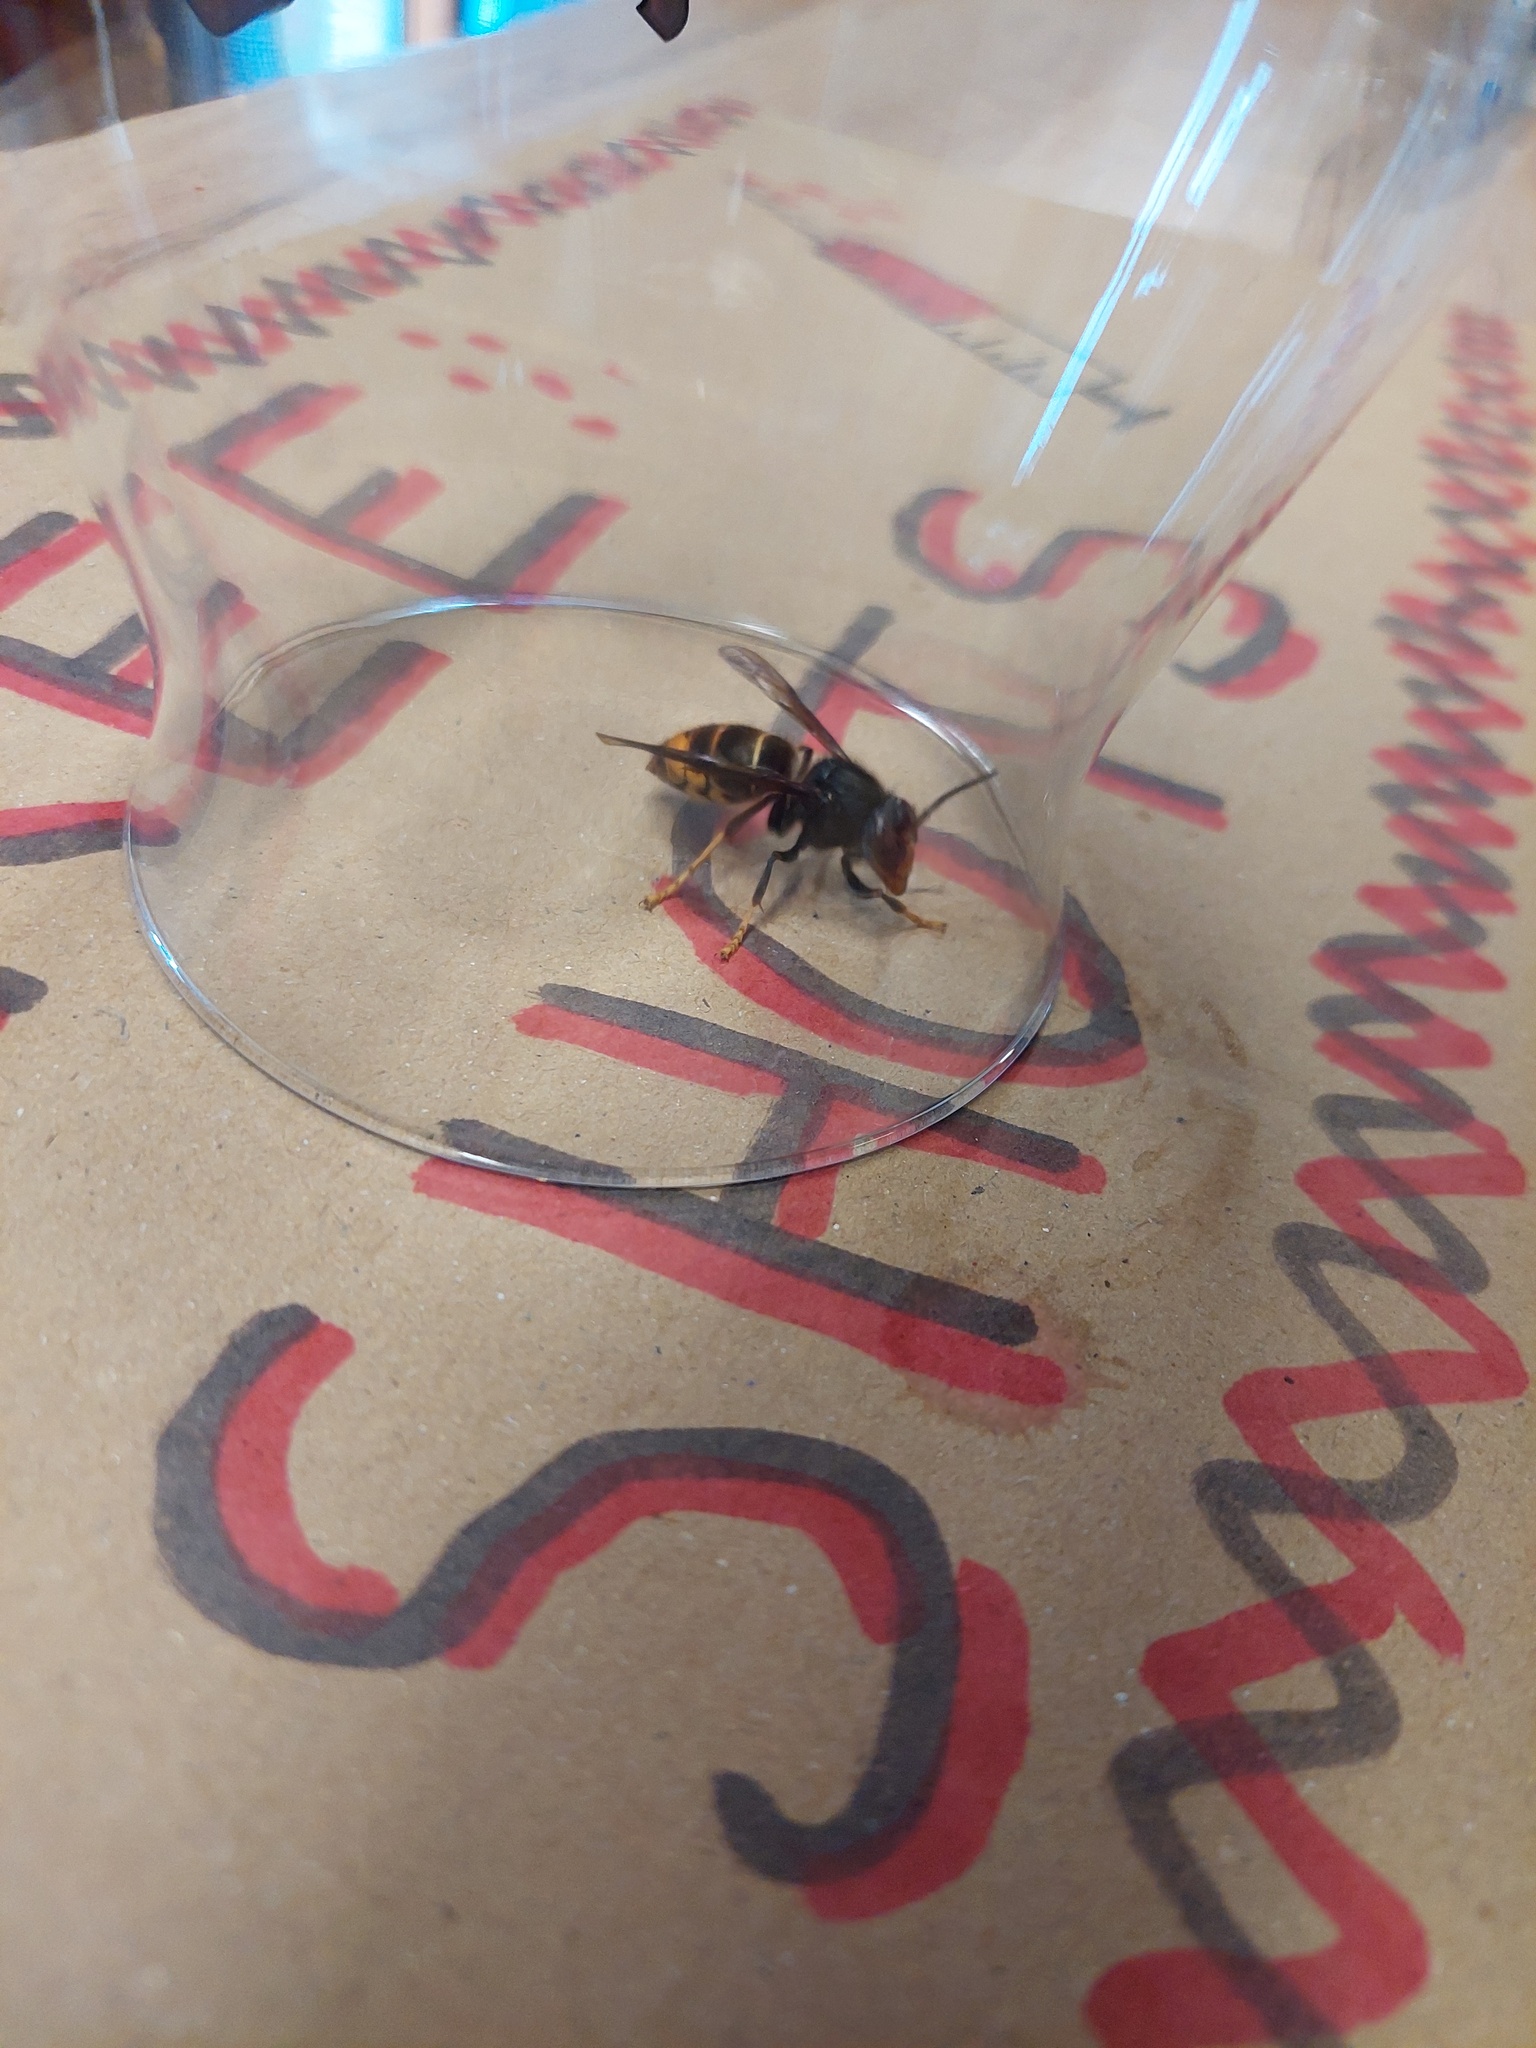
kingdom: Animalia
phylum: Arthropoda
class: Insecta
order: Hymenoptera
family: Vespidae
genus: Vespa
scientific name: Vespa velutina
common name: Asian hornet
